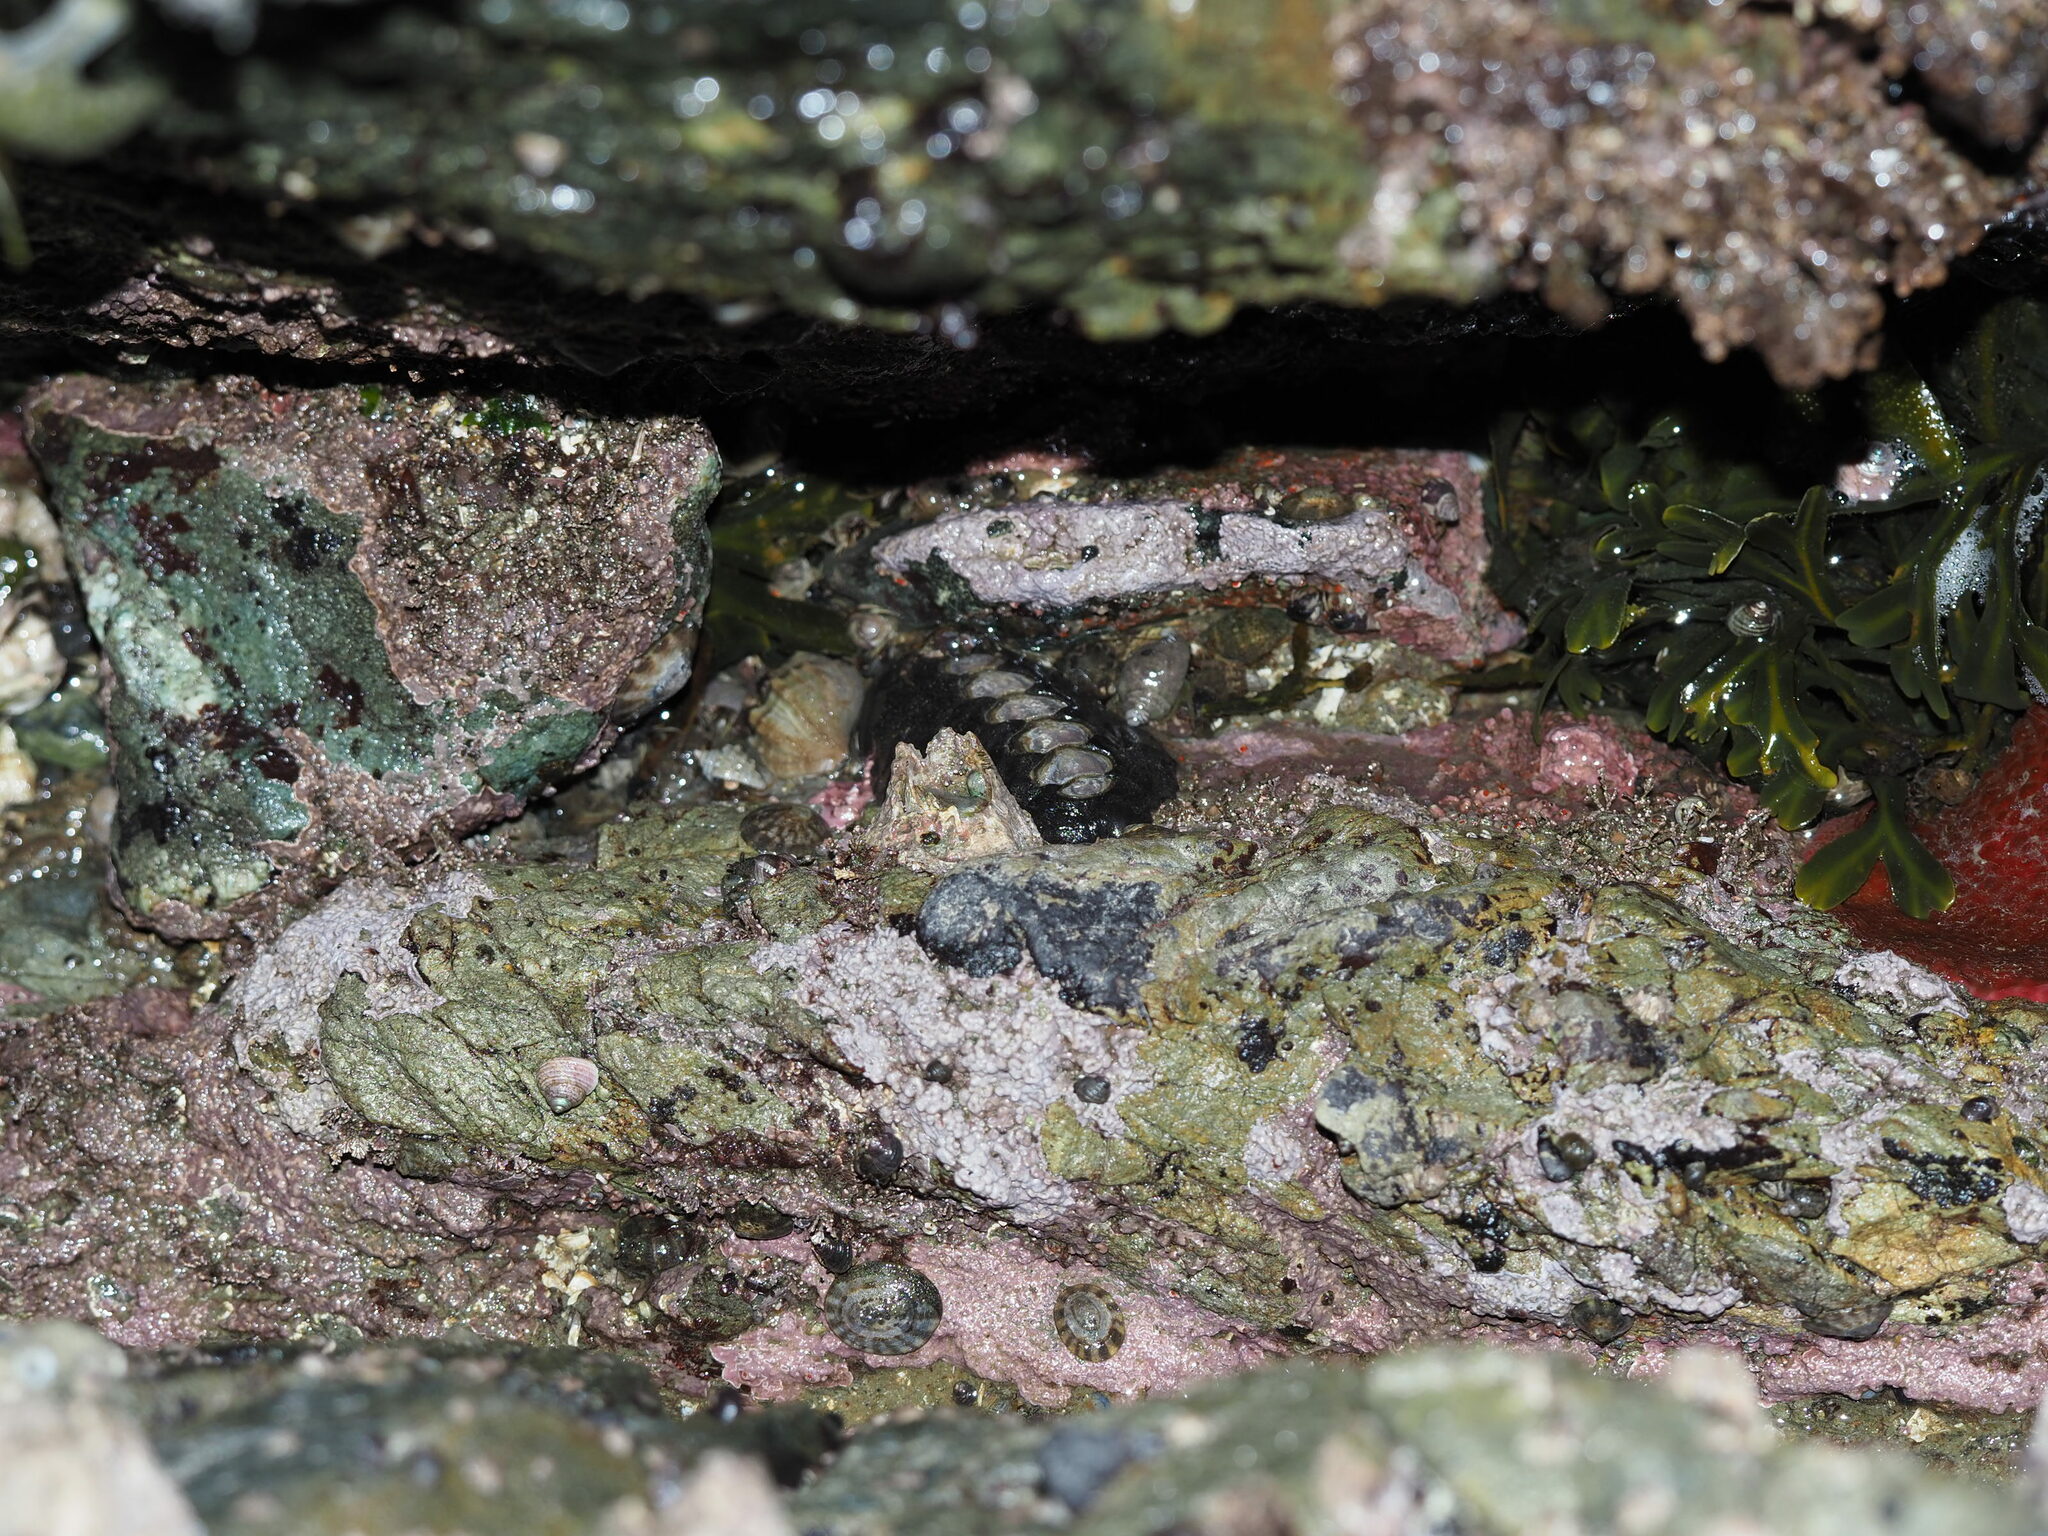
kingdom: Animalia
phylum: Mollusca
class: Polyplacophora
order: Chitonida
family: Mopaliidae
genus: Katharina
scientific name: Katharina tunicata
